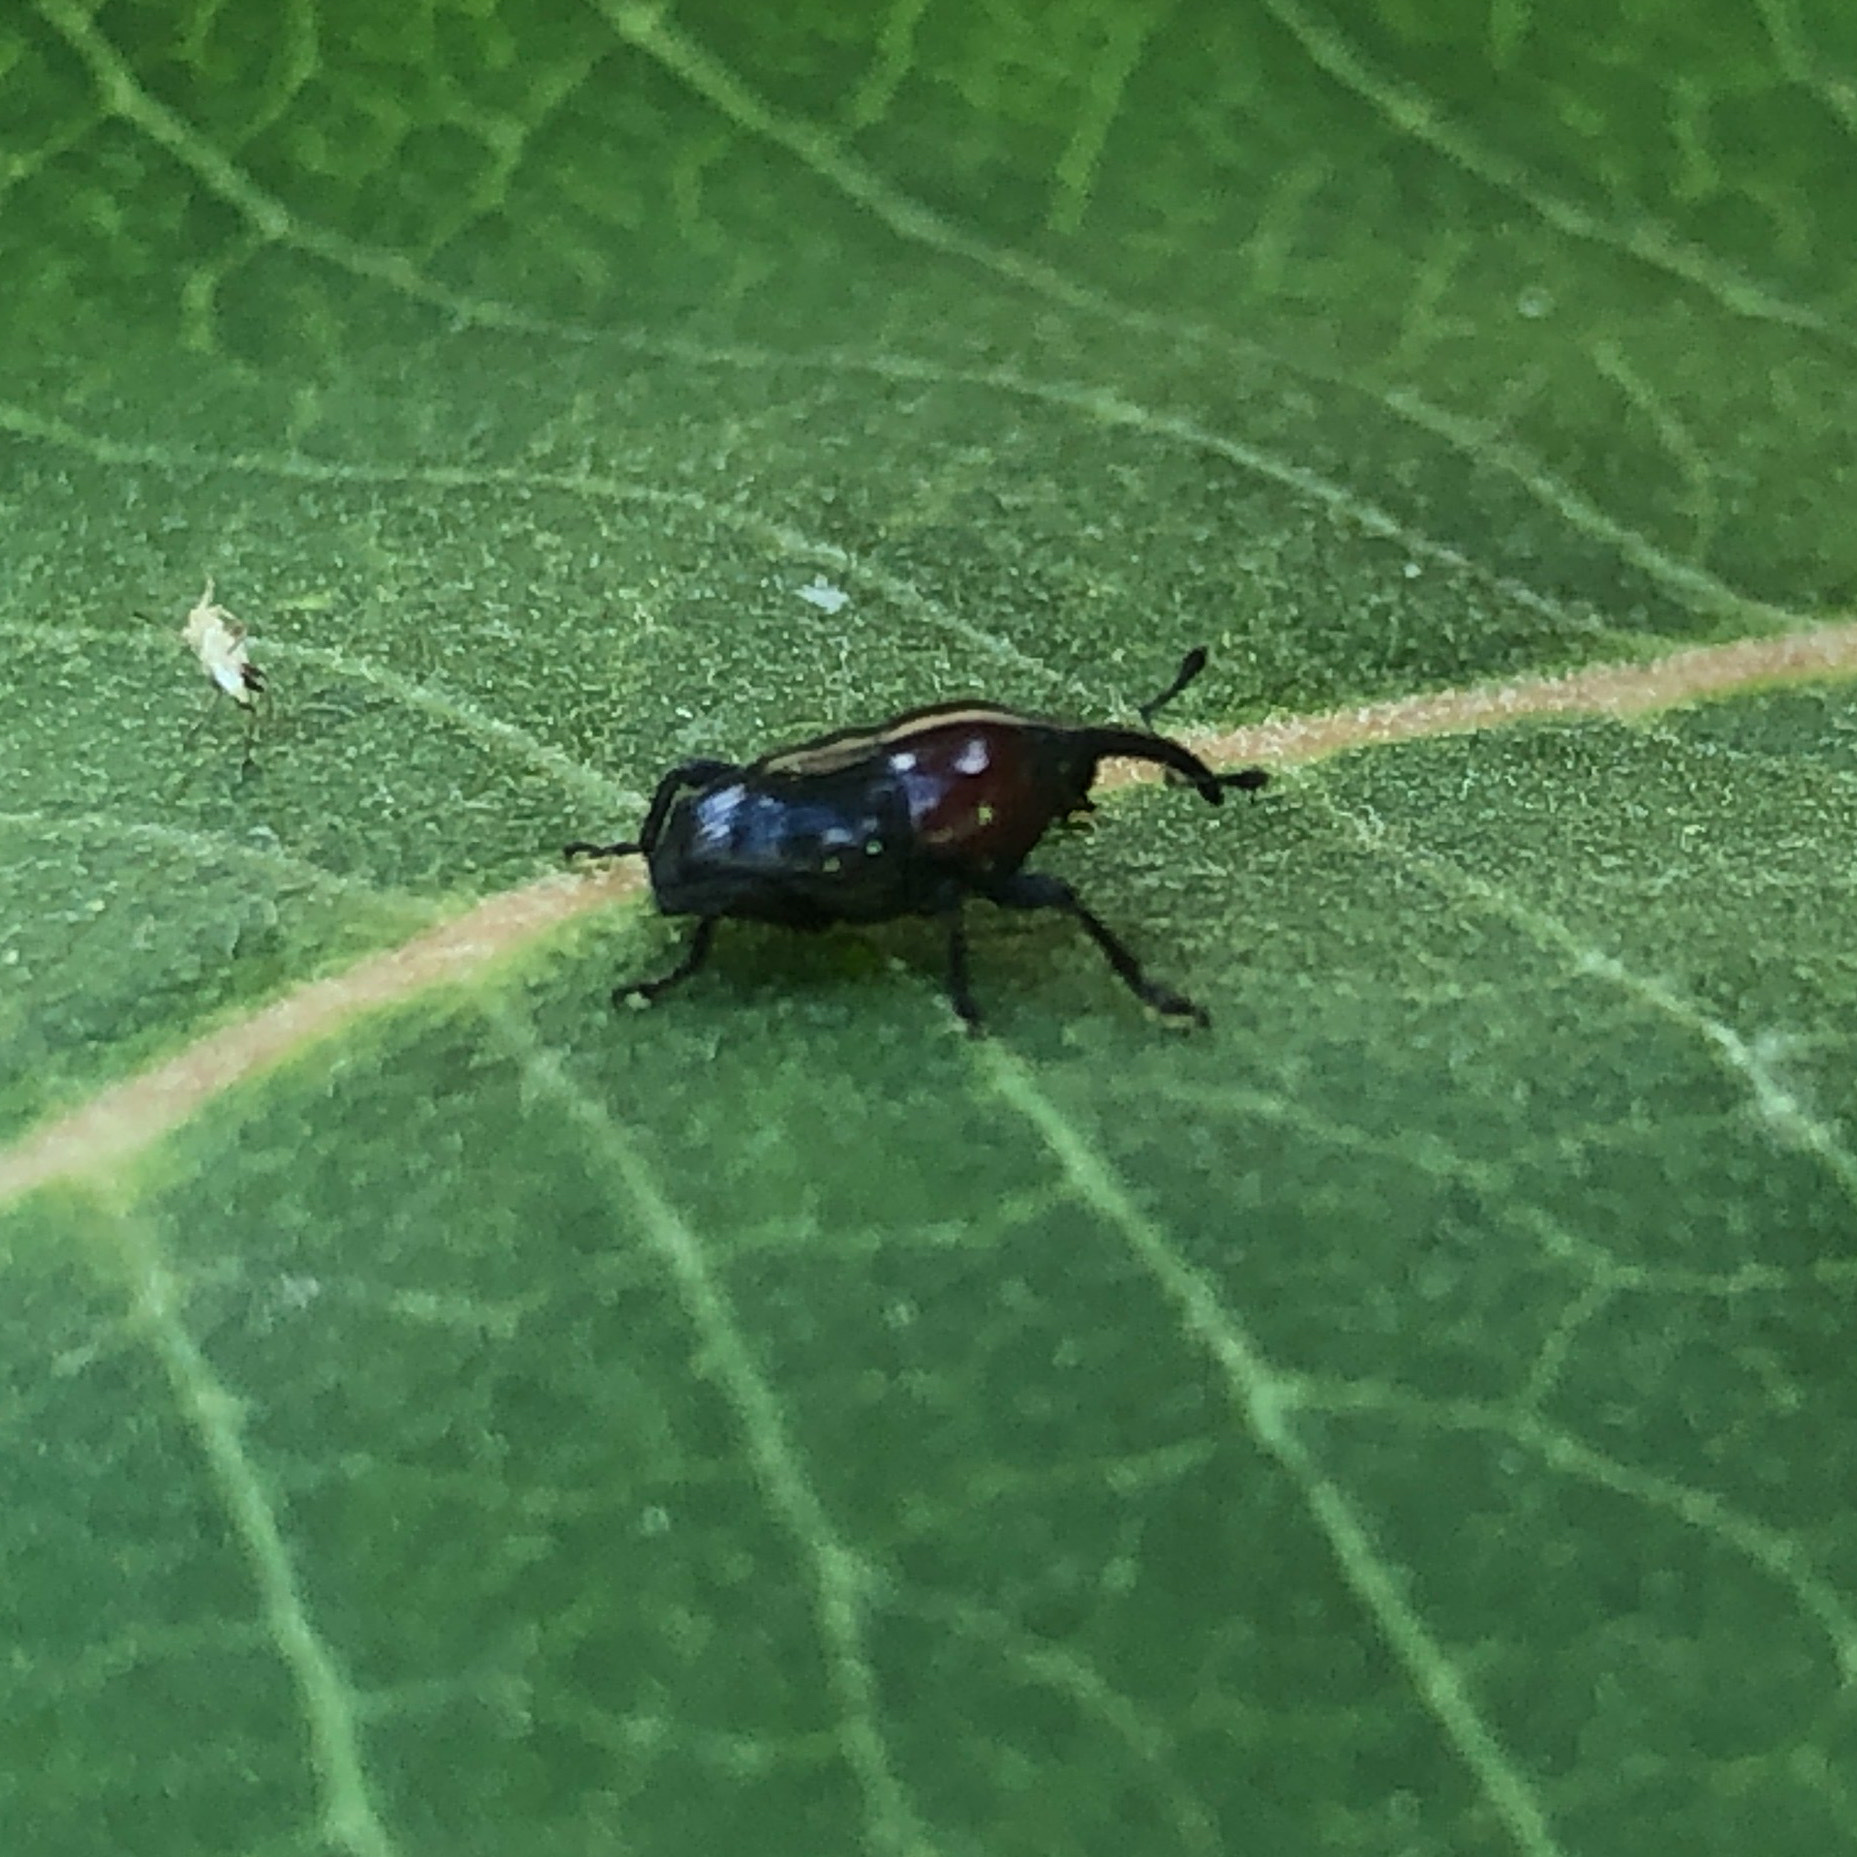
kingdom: Animalia
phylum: Arthropoda
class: Insecta
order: Coleoptera
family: Curculionidae
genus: Madarellus
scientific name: Madarellus undulatus
